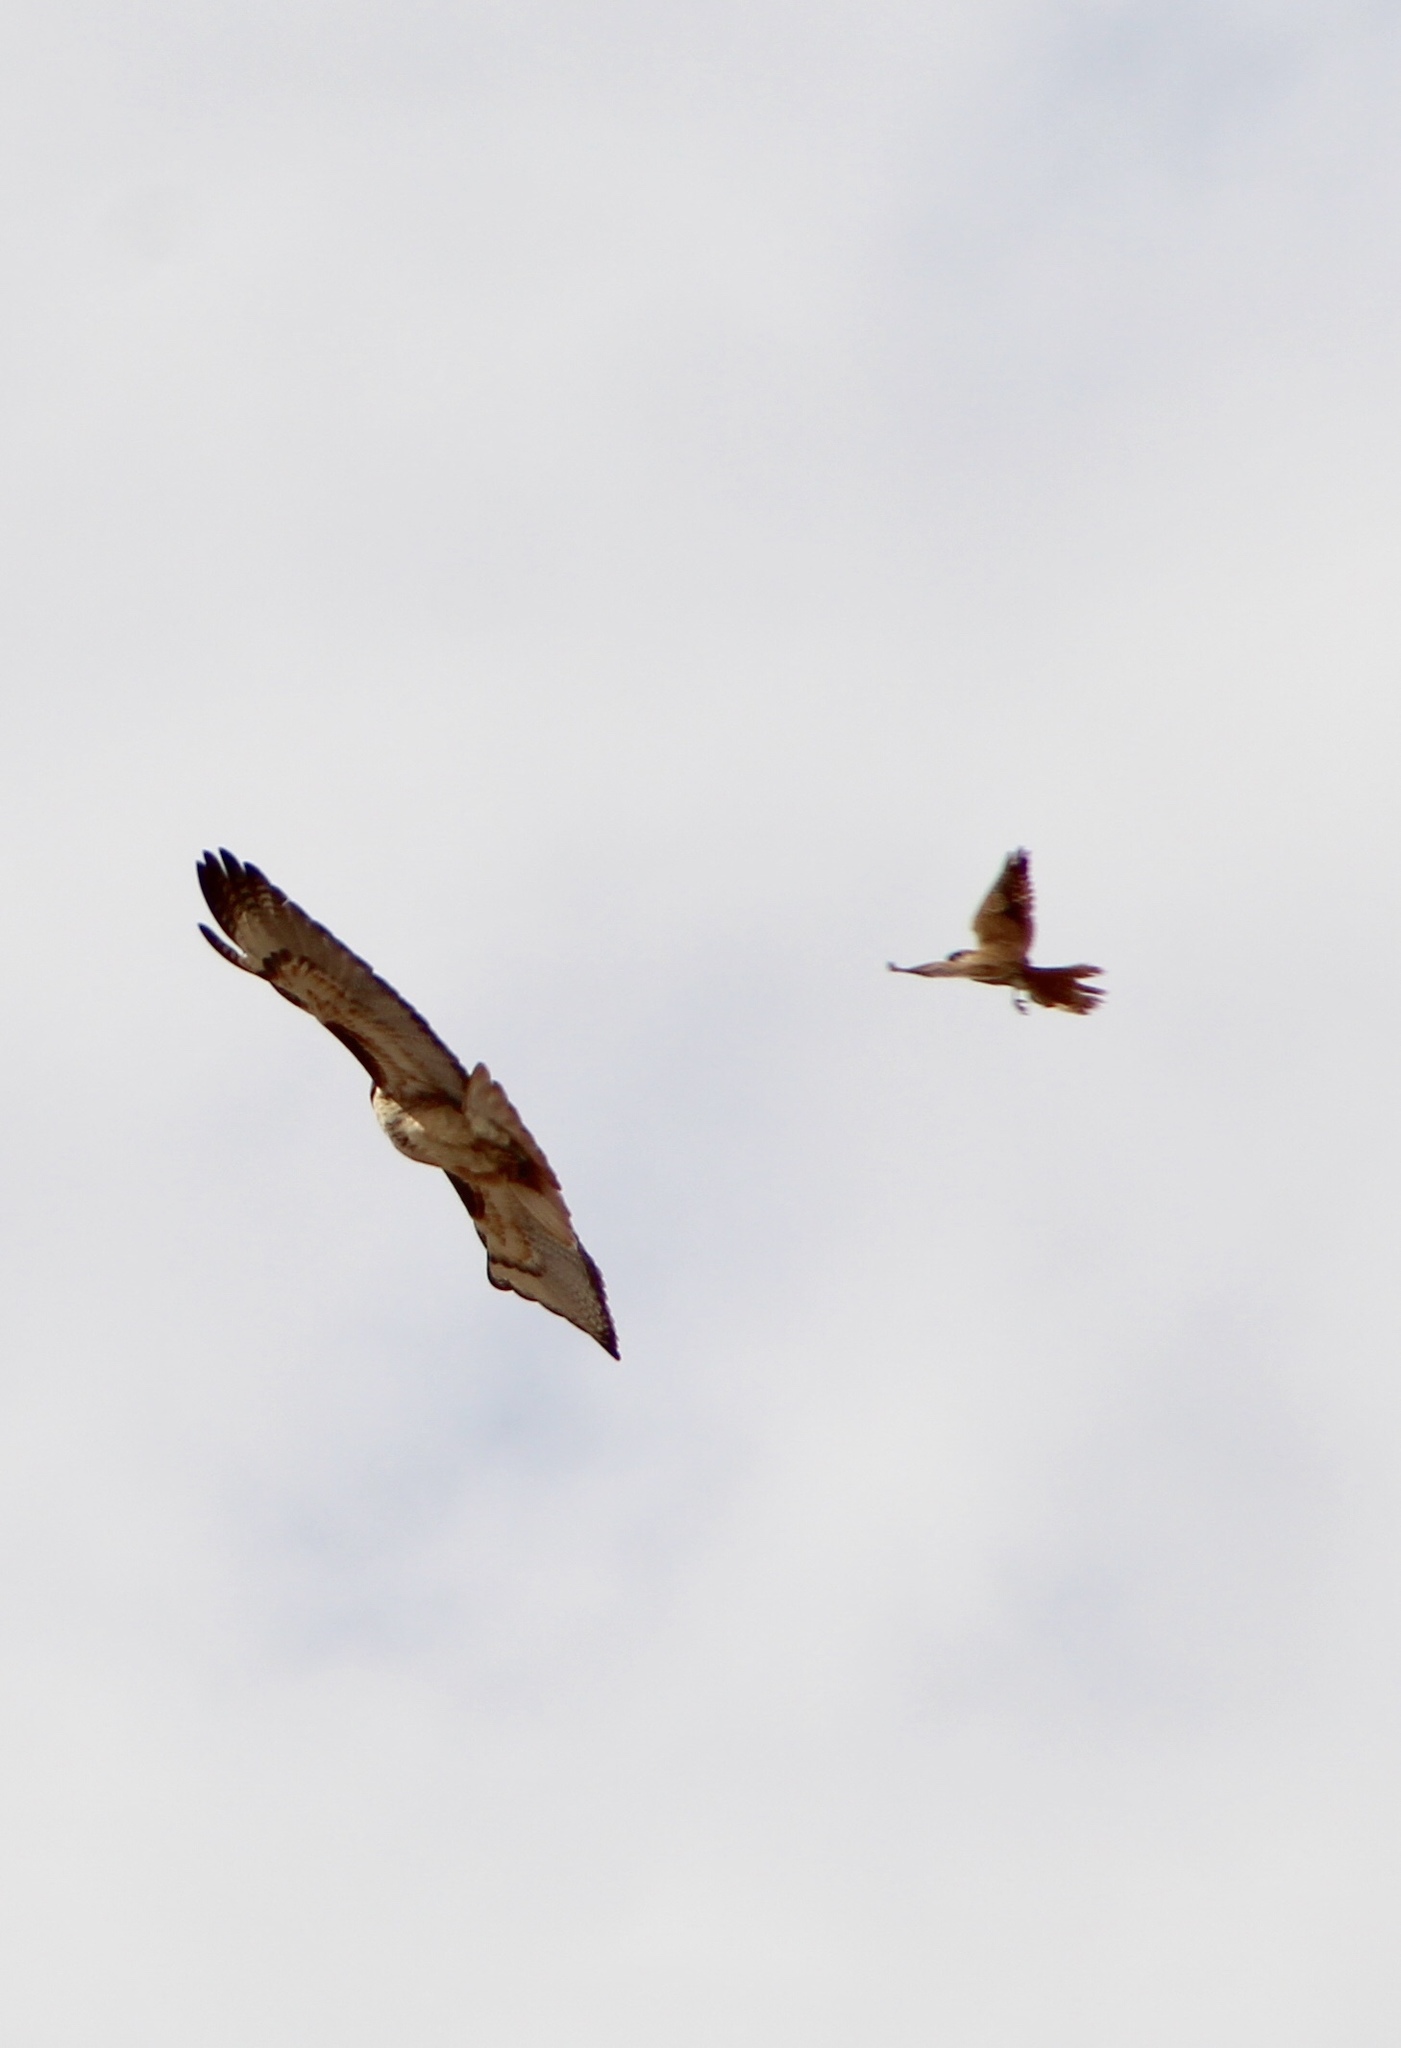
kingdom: Animalia
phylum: Chordata
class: Aves
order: Falconiformes
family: Falconidae
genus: Falco
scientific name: Falco sparverius
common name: American kestrel
